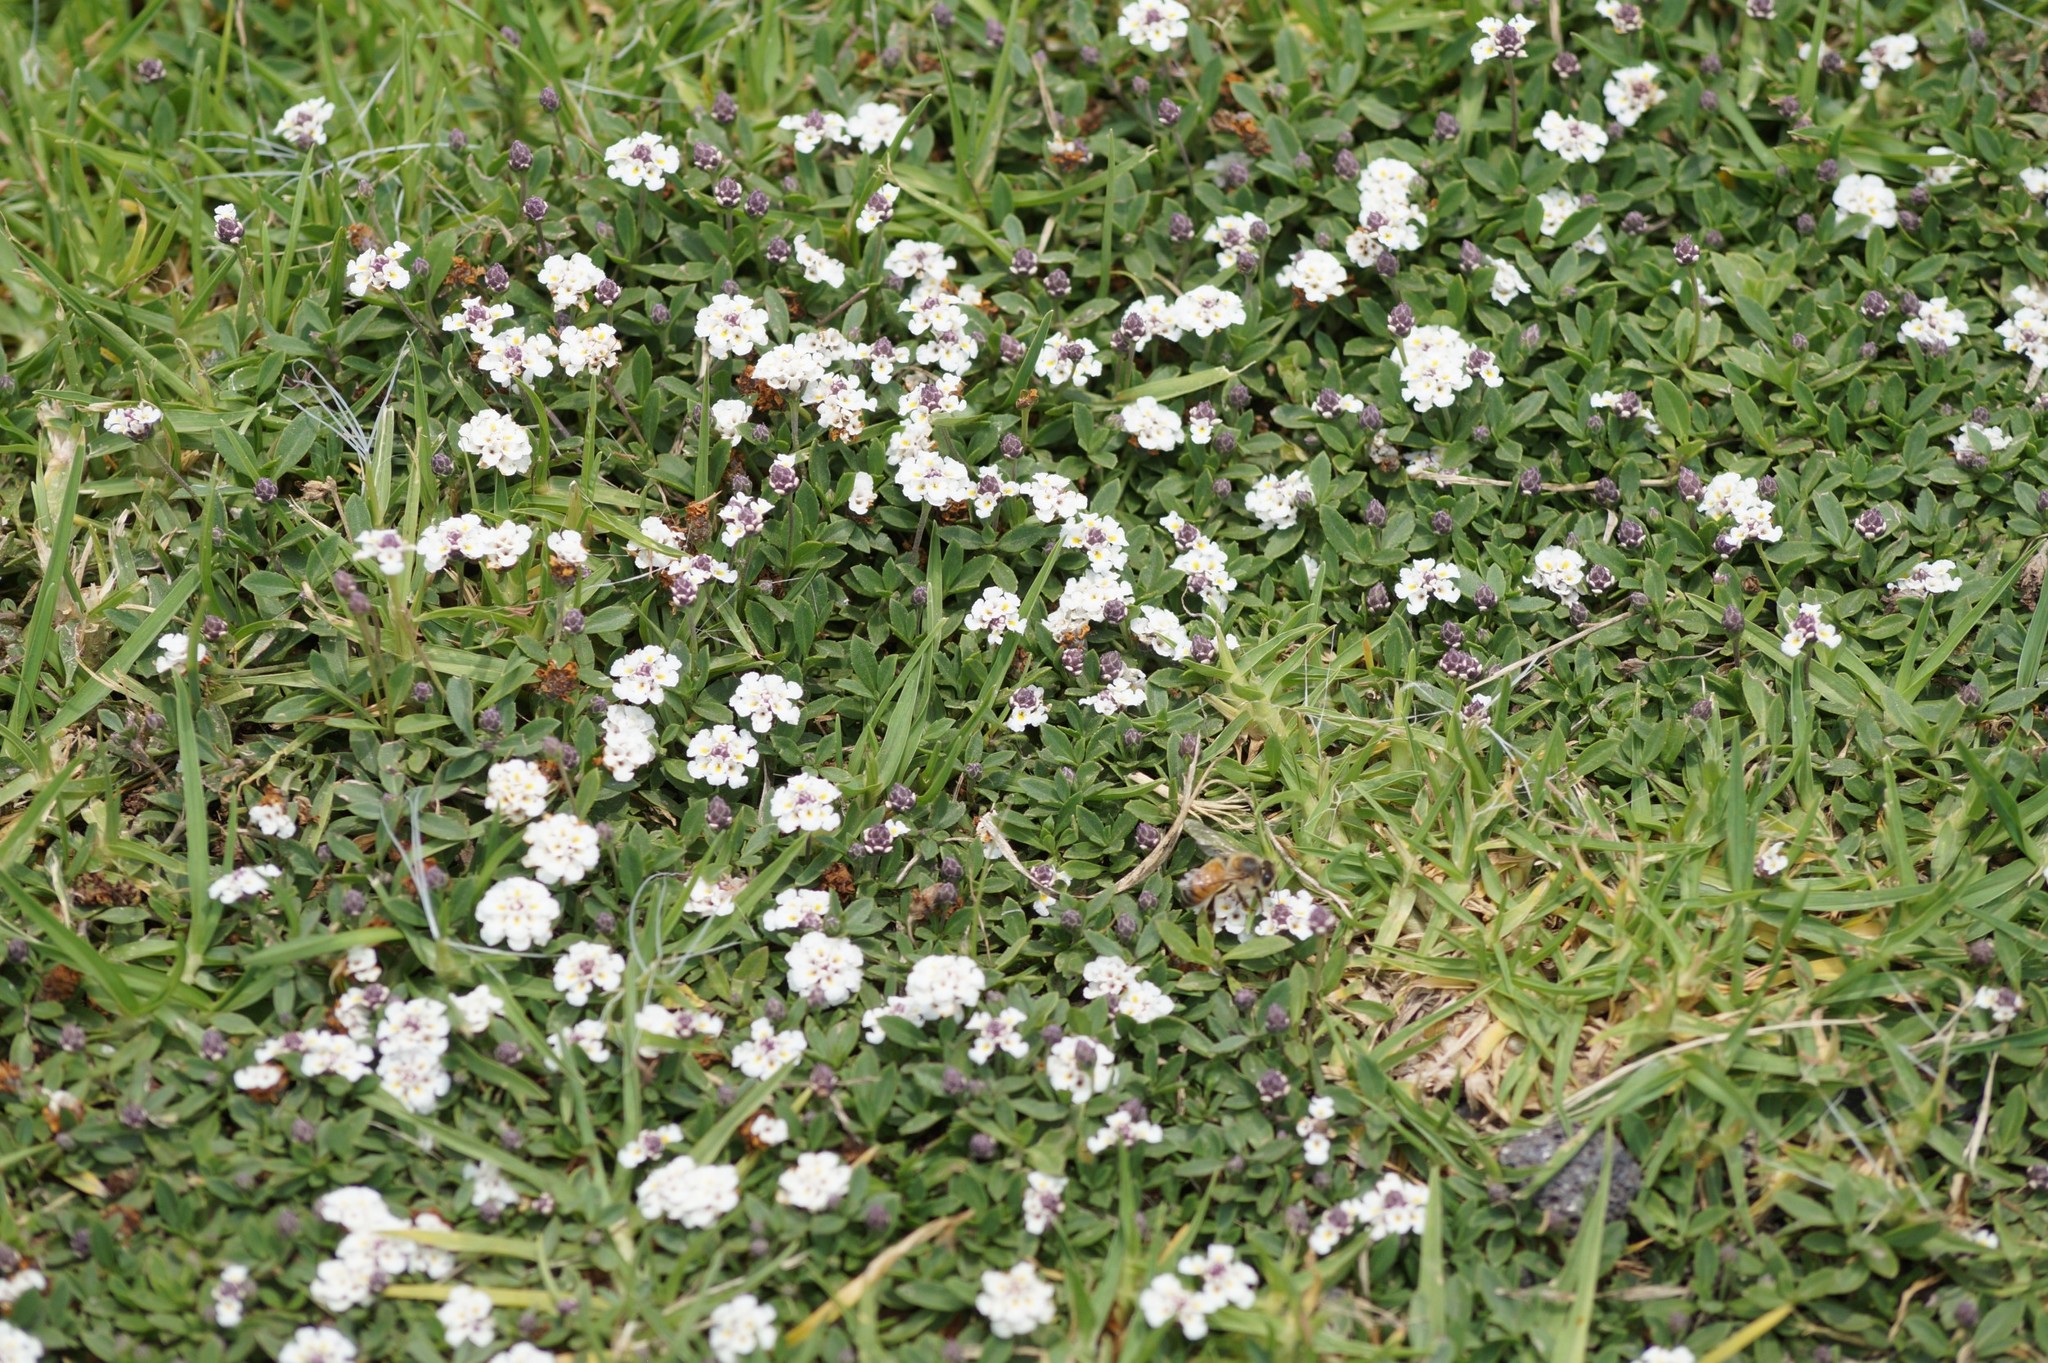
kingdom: Plantae
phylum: Tracheophyta
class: Magnoliopsida
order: Lamiales
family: Verbenaceae
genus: Phyla
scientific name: Phyla nodiflora
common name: Frogfruit
